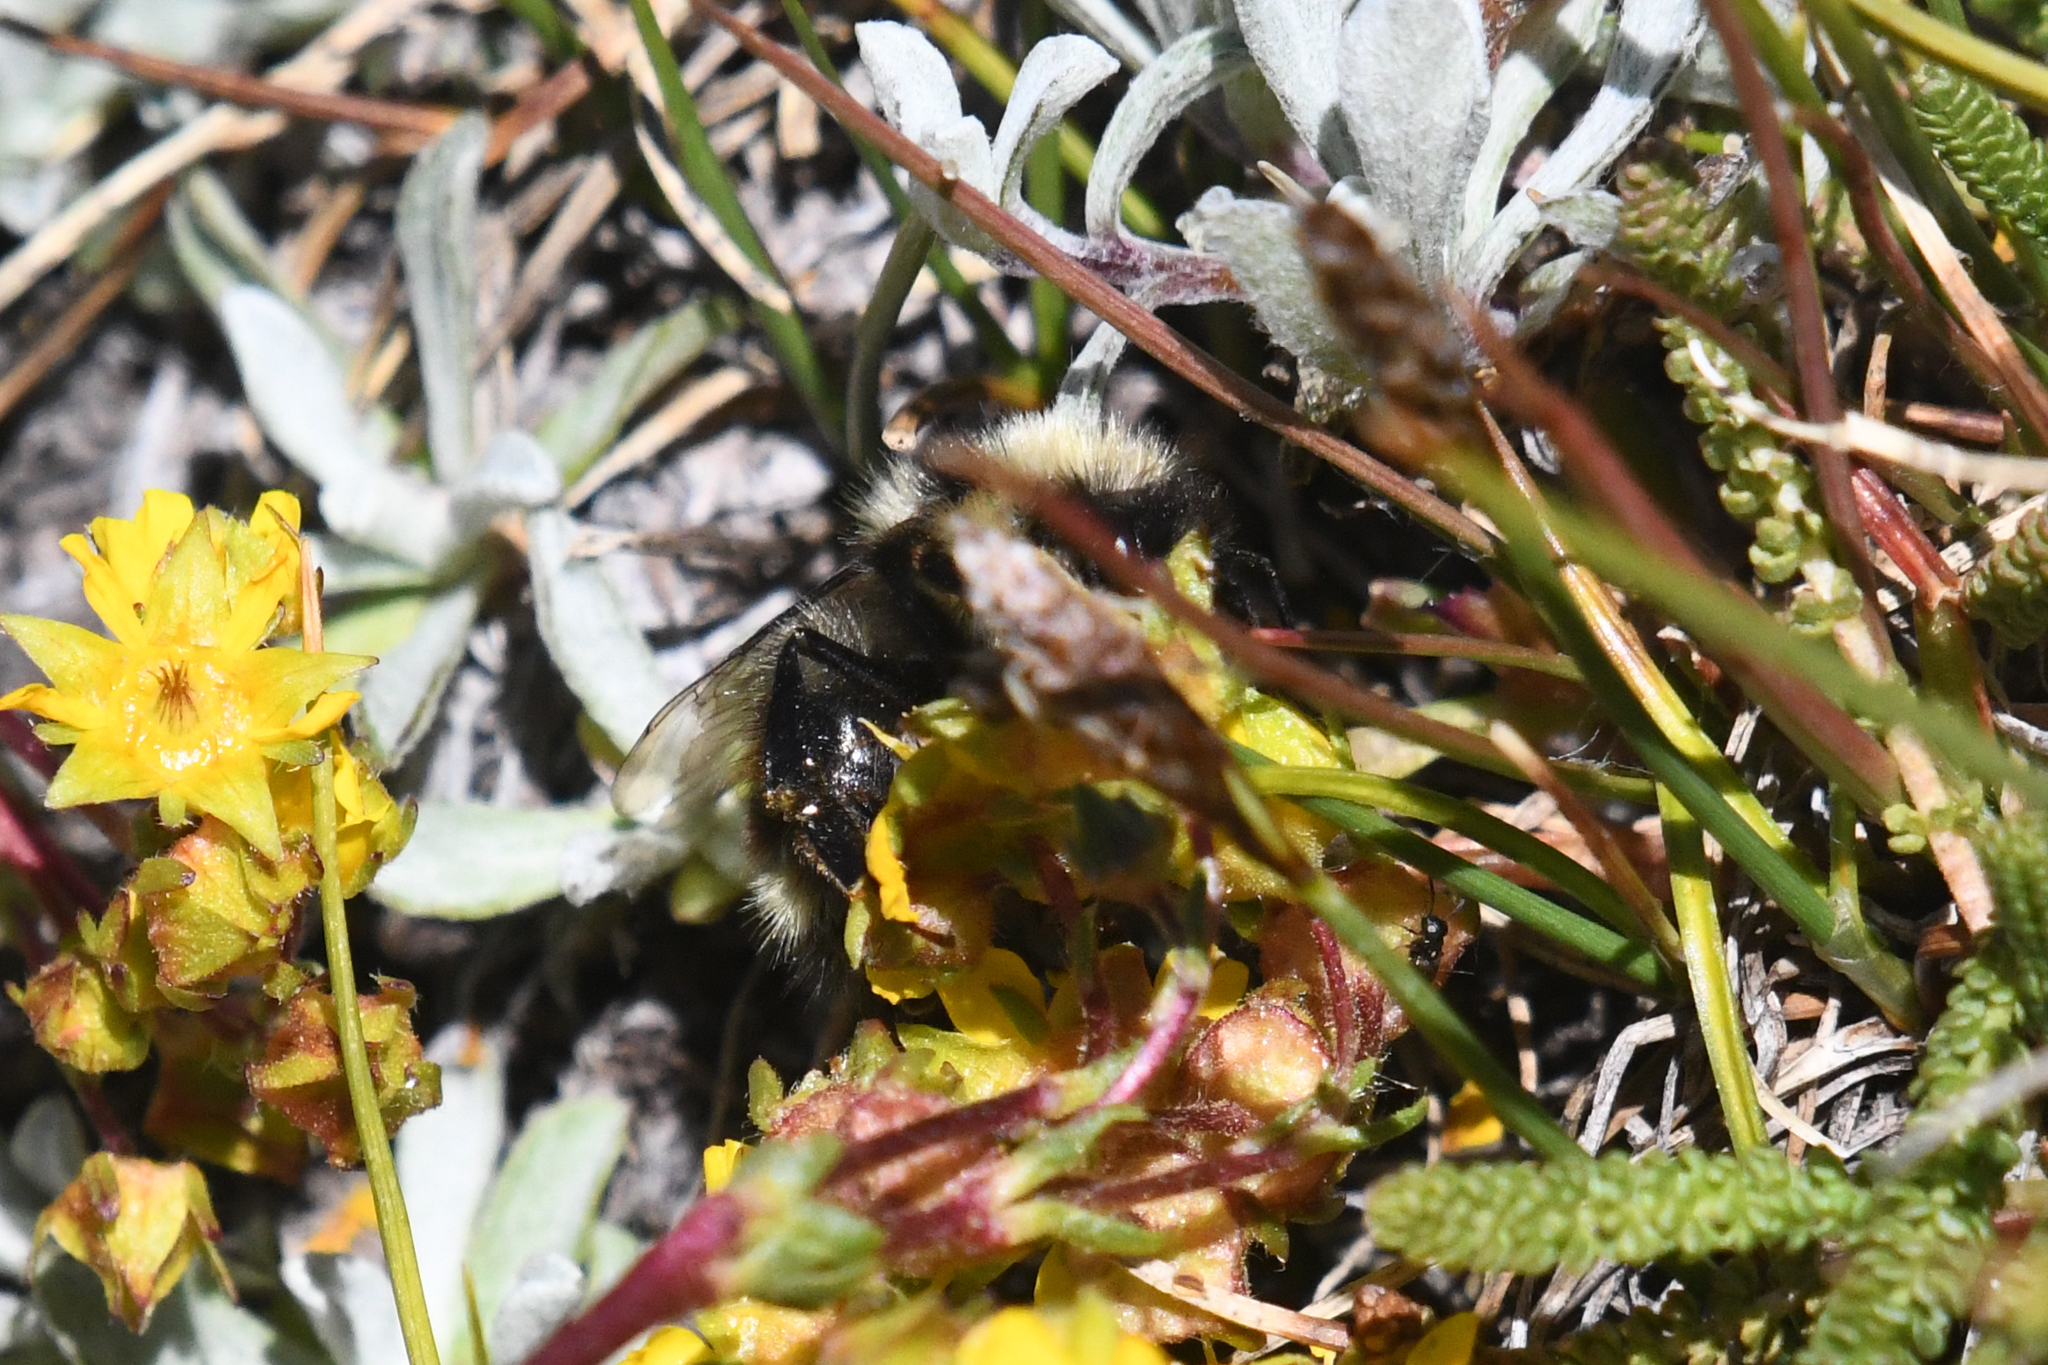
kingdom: Animalia
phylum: Arthropoda
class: Insecta
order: Hymenoptera
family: Apidae
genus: Bombus
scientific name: Bombus sylvicola
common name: Forest bumble bee
